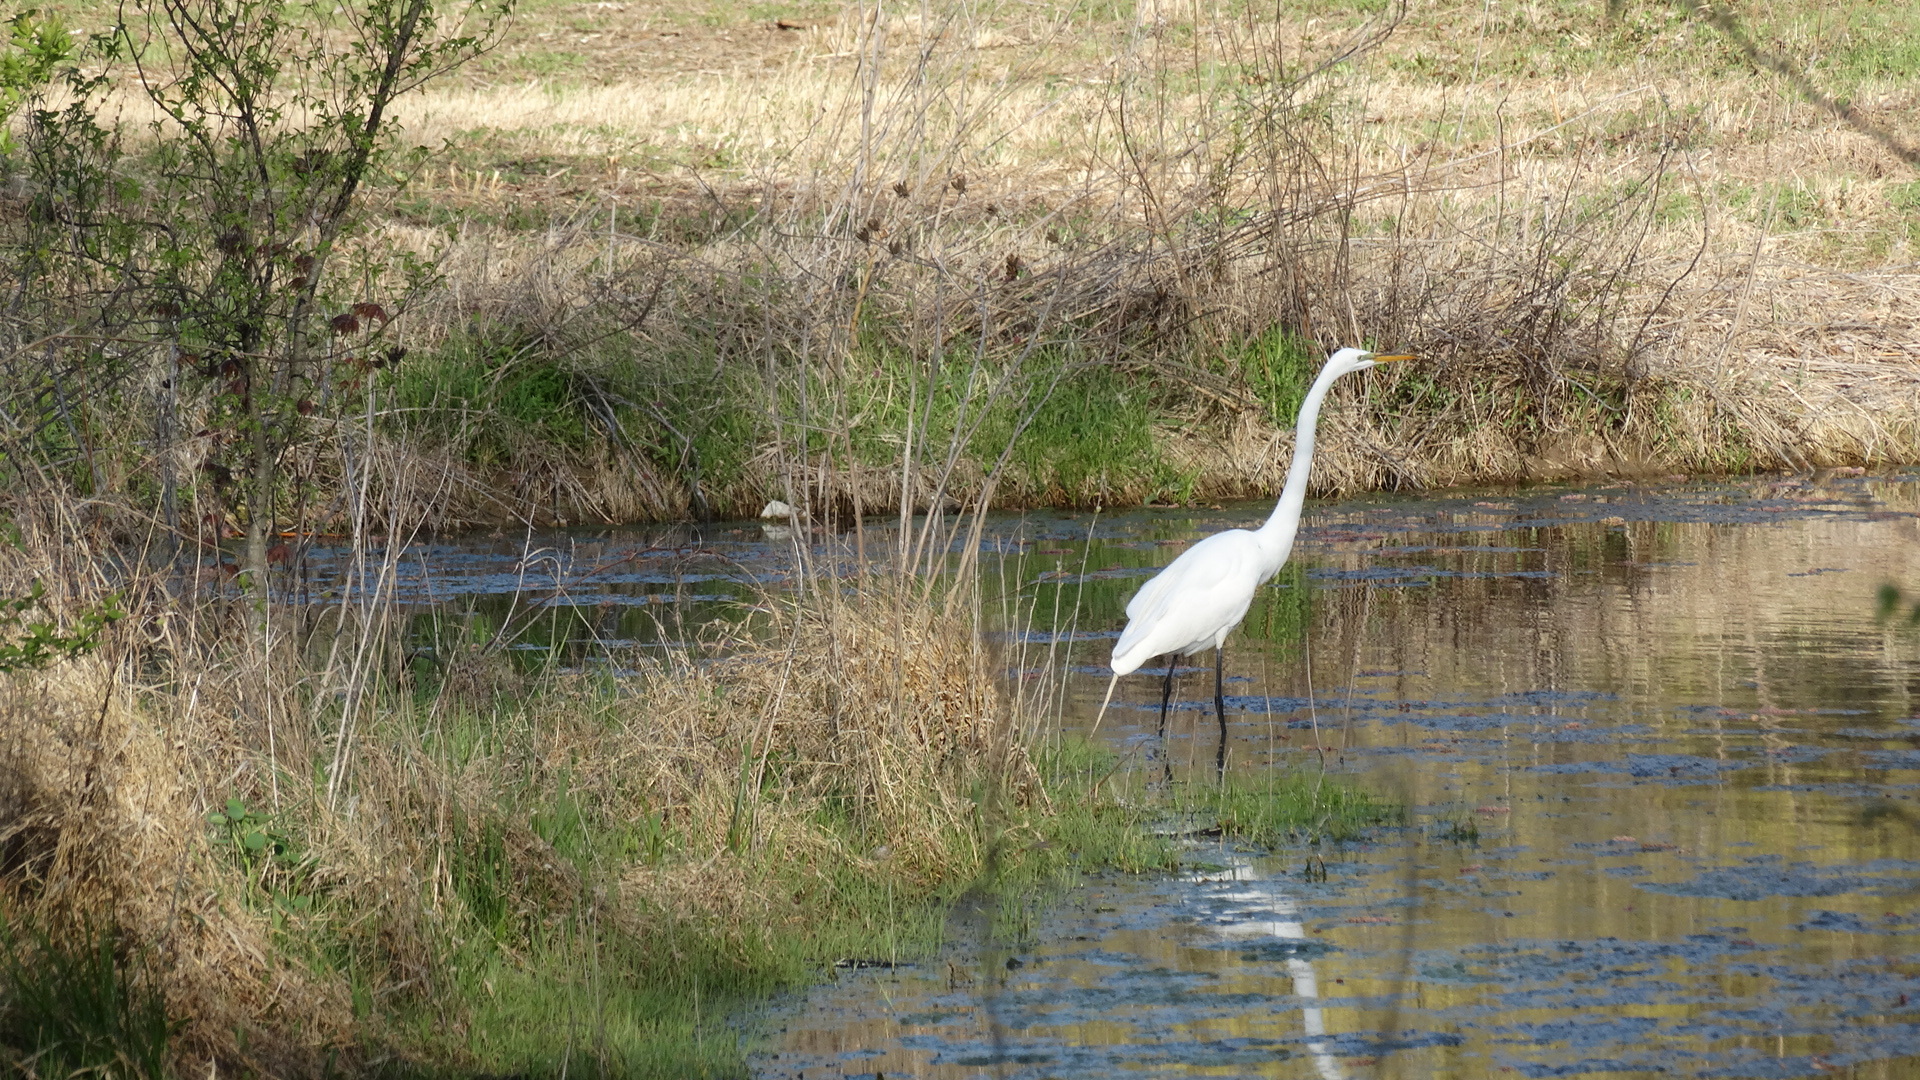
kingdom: Animalia
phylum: Chordata
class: Aves
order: Pelecaniformes
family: Ardeidae
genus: Ardea
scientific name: Ardea alba
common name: Great egret
